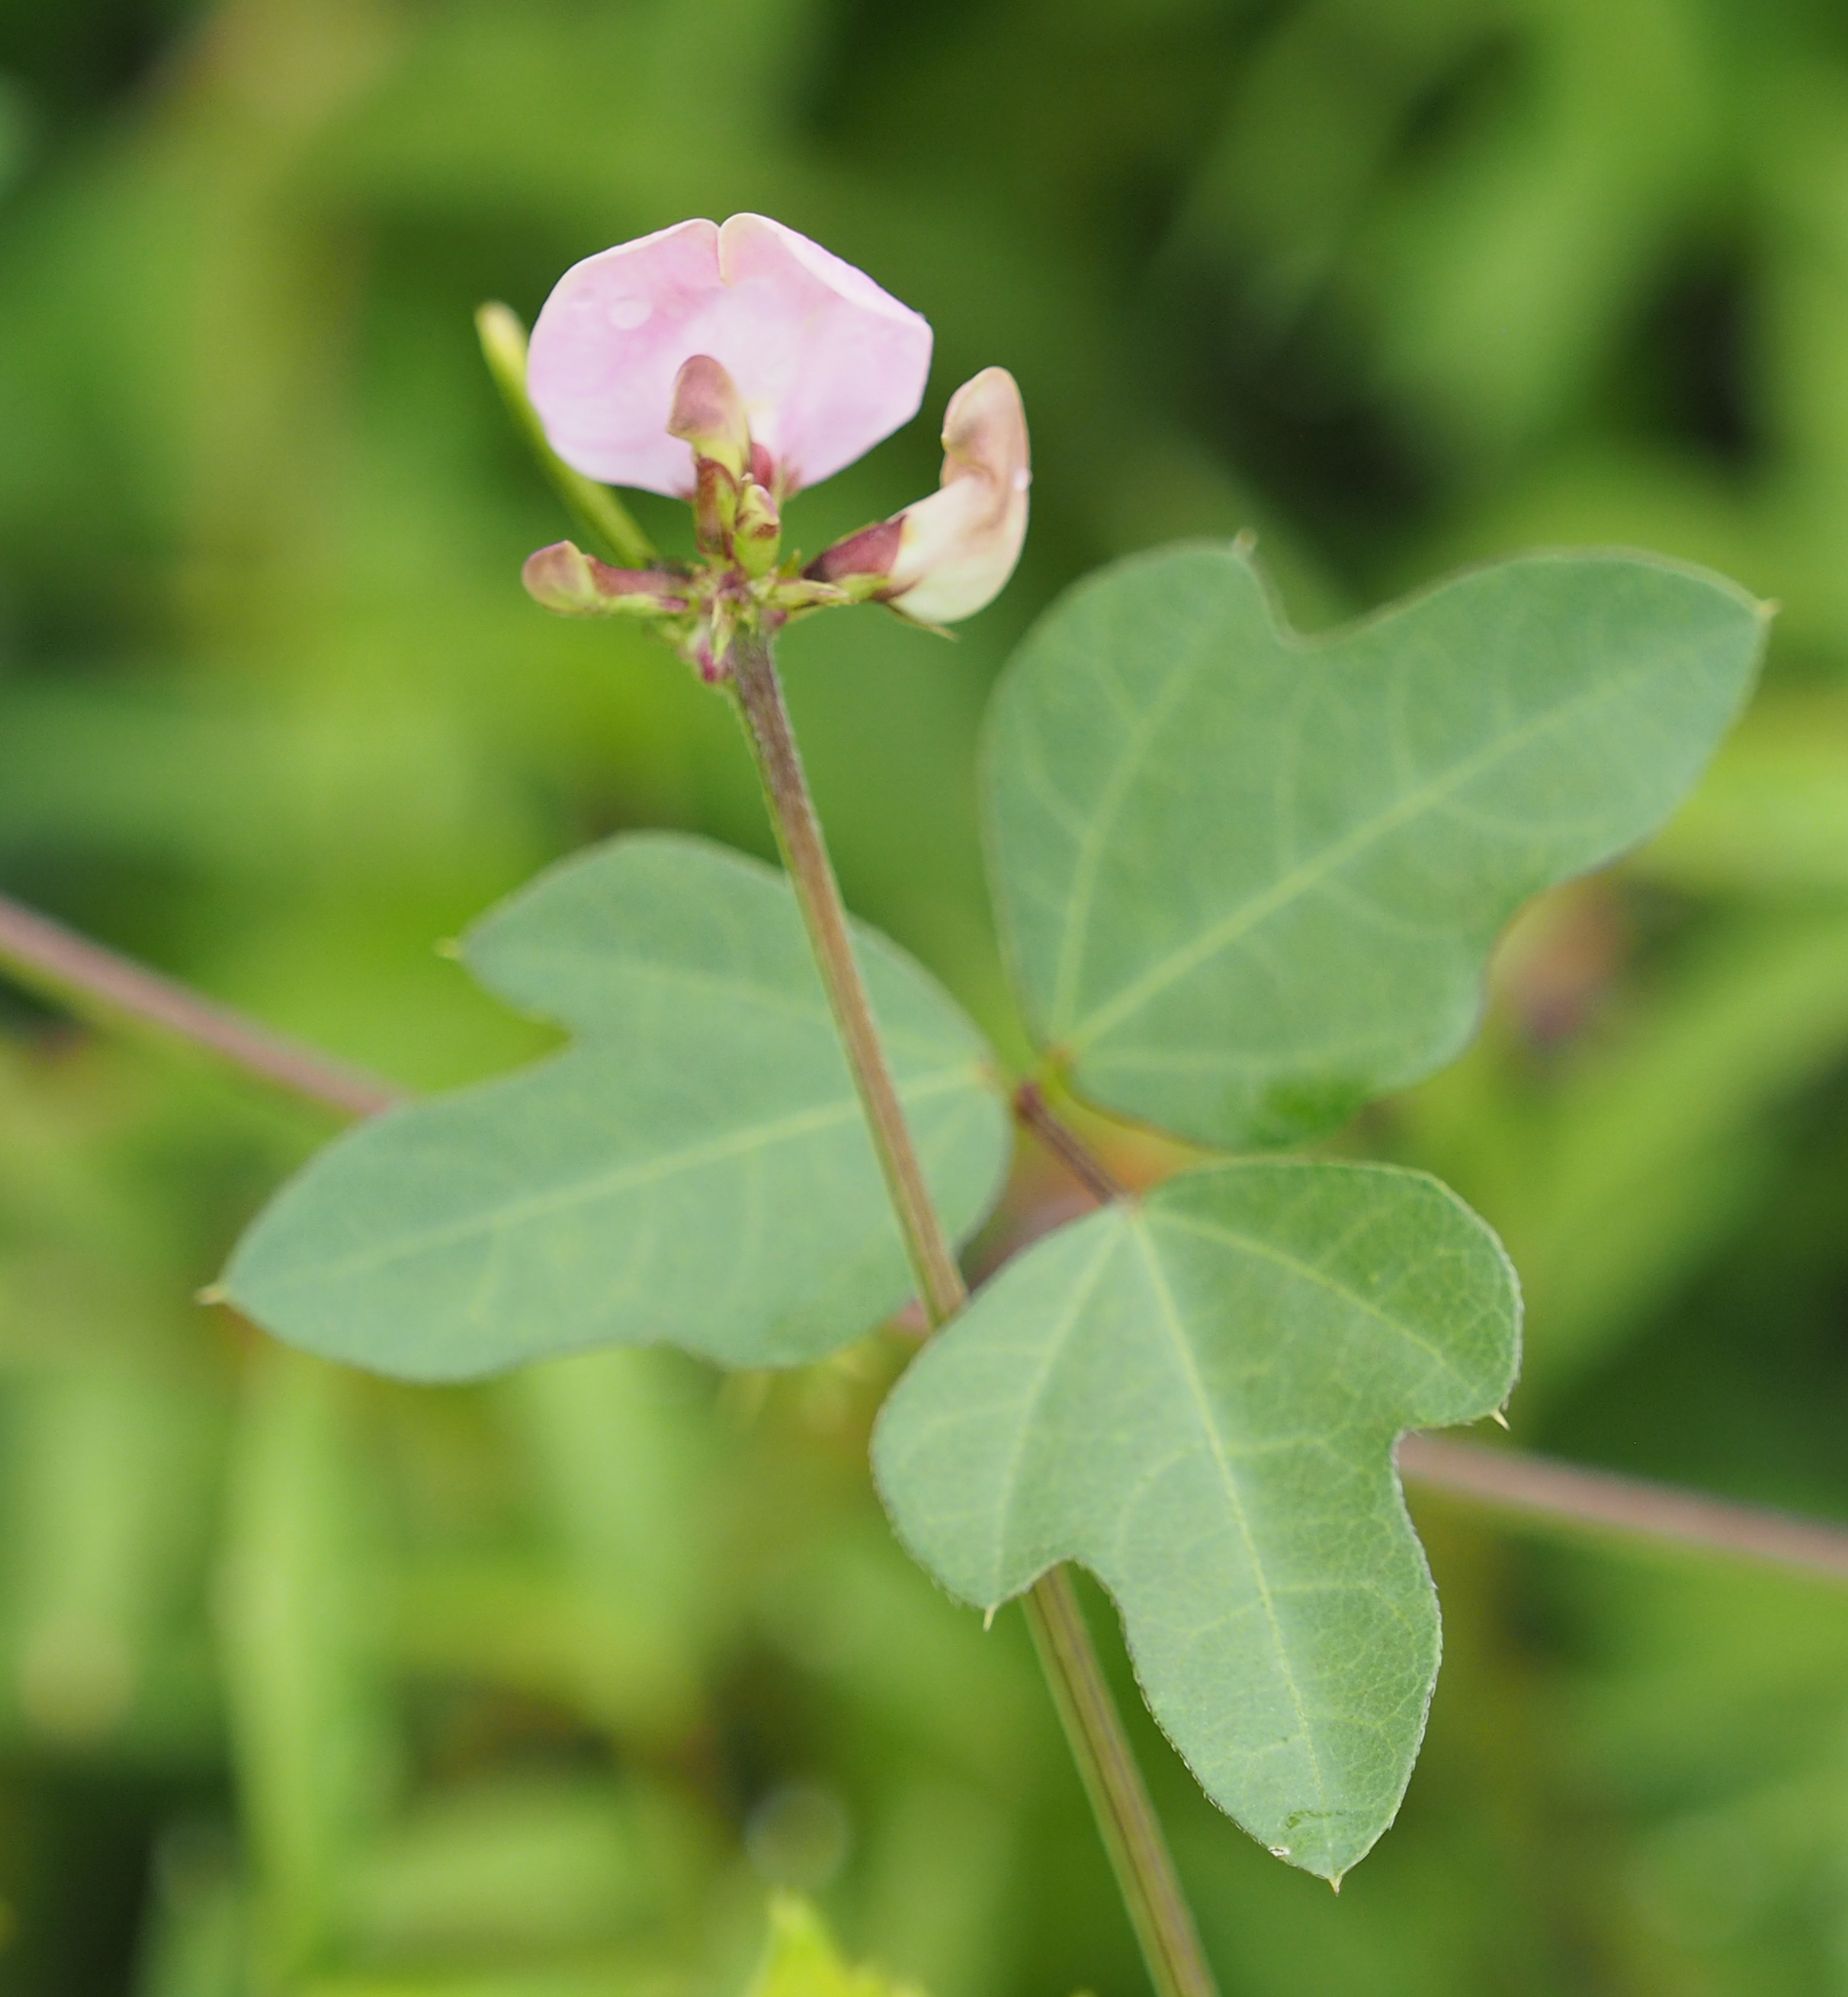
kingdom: Plantae
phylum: Tracheophyta
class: Magnoliopsida
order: Fabales
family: Fabaceae
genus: Strophostyles
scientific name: Strophostyles helvola
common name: Trailing wild bean
